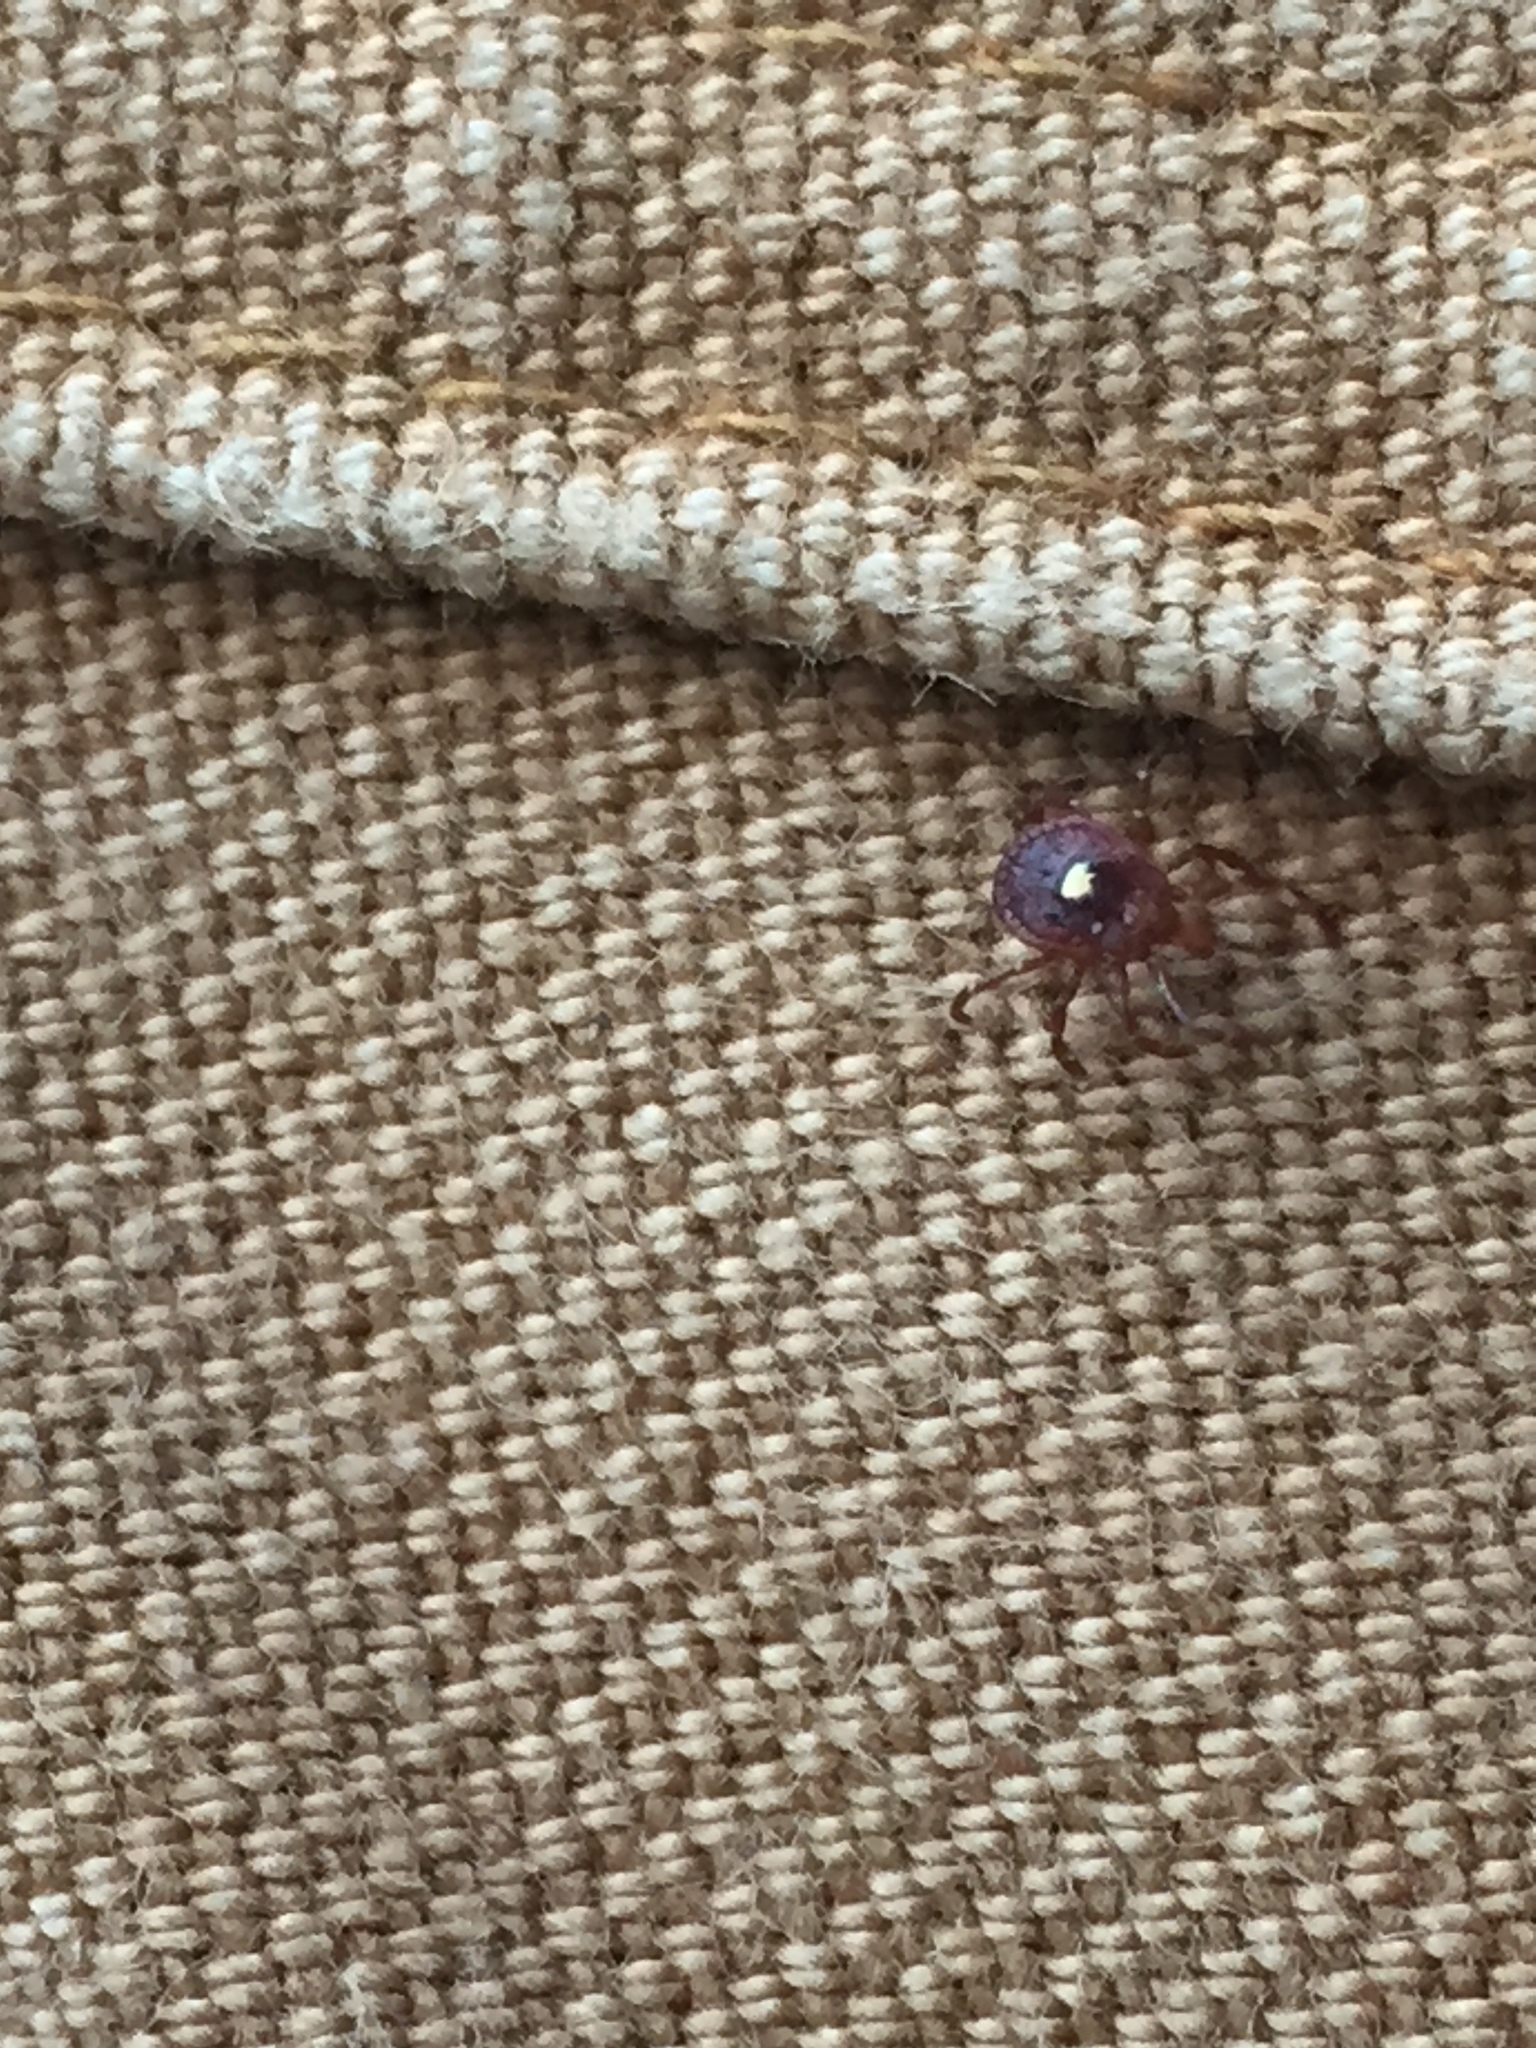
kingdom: Animalia
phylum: Arthropoda
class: Arachnida
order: Ixodida
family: Ixodidae
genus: Amblyomma
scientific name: Amblyomma americanum
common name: Lone star tick
